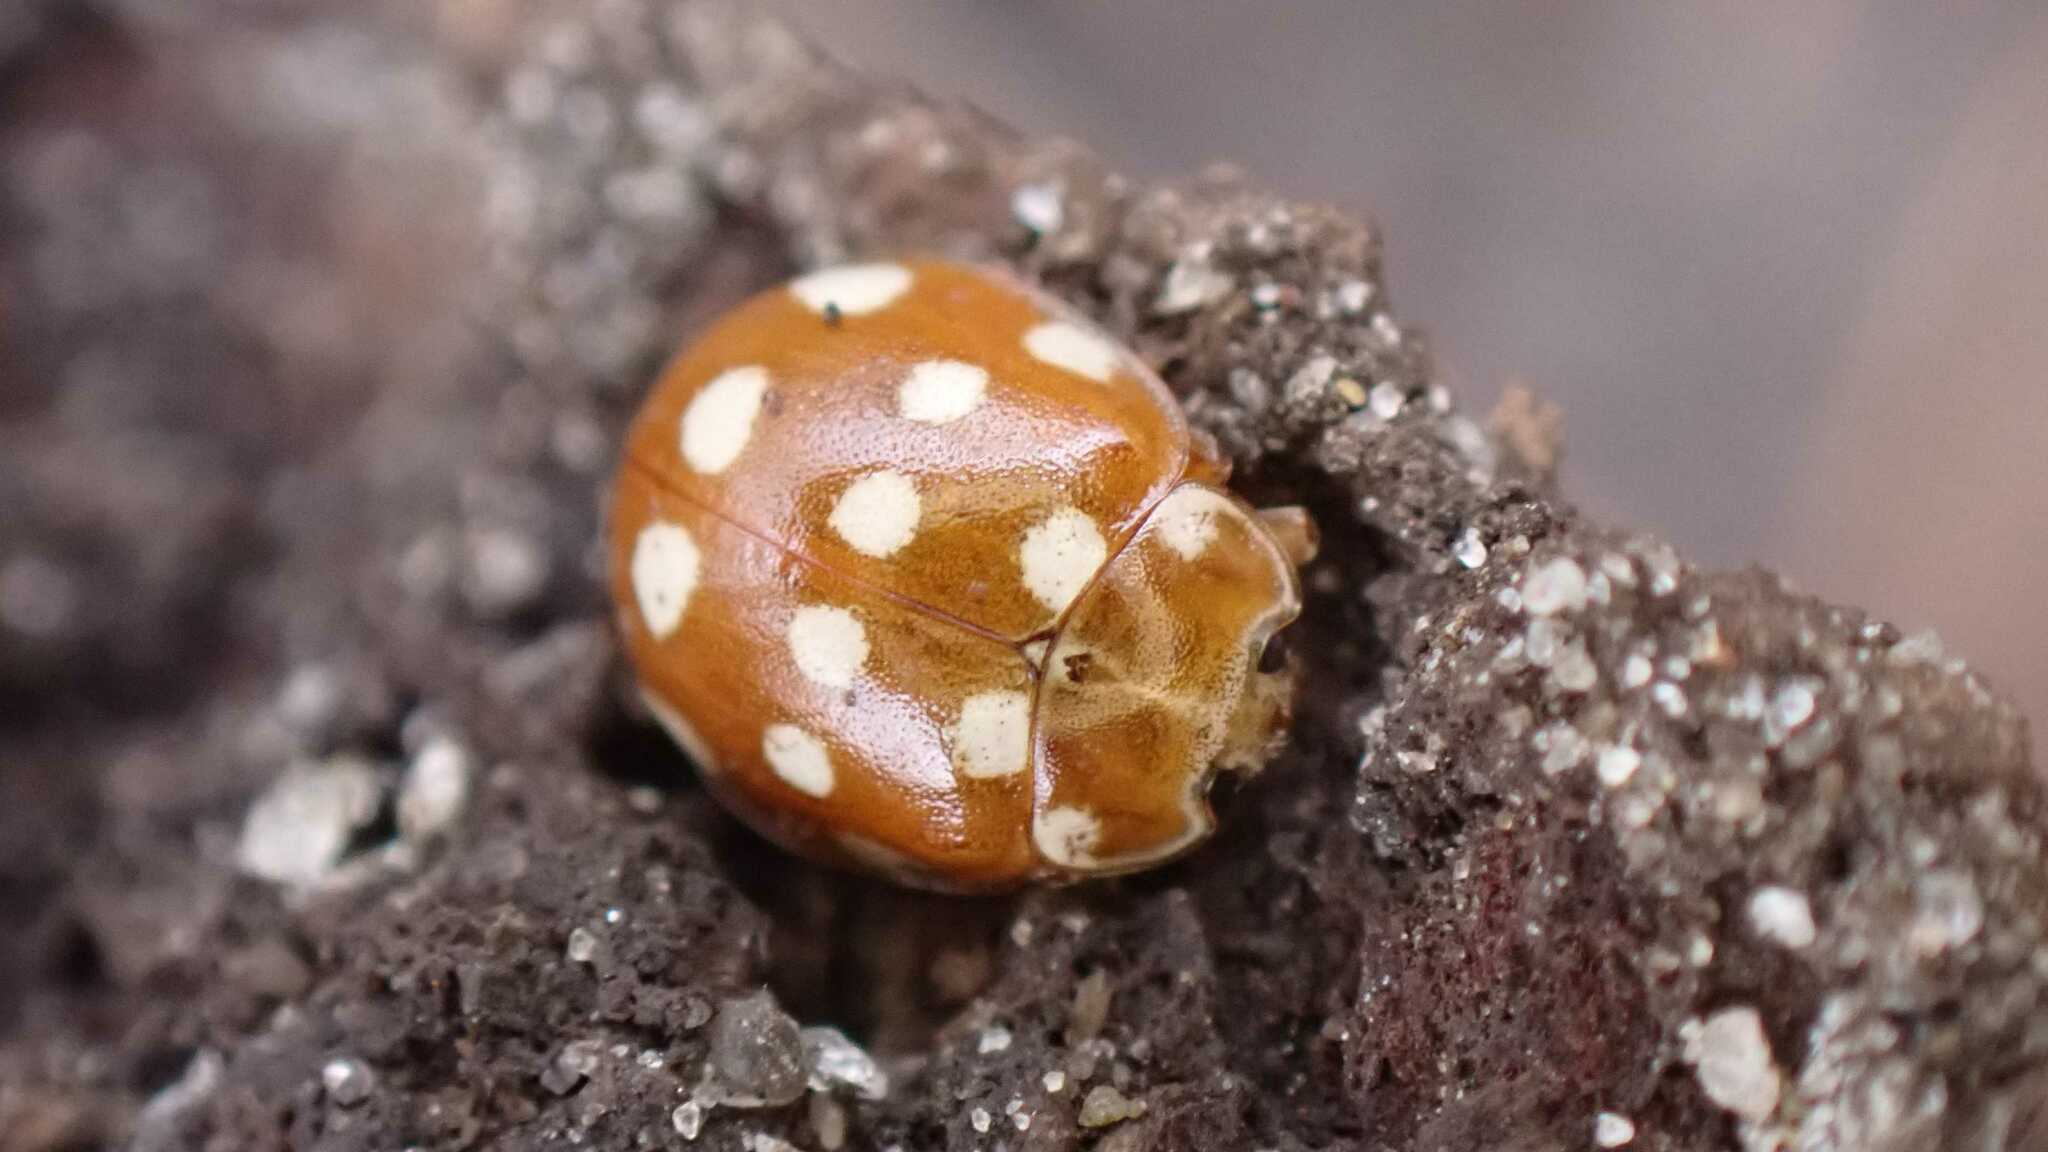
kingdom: Animalia
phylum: Arthropoda
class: Insecta
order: Coleoptera
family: Coccinellidae
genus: Calvia
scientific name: Calvia quatuordecimguttata
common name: Cream-spot ladybird
